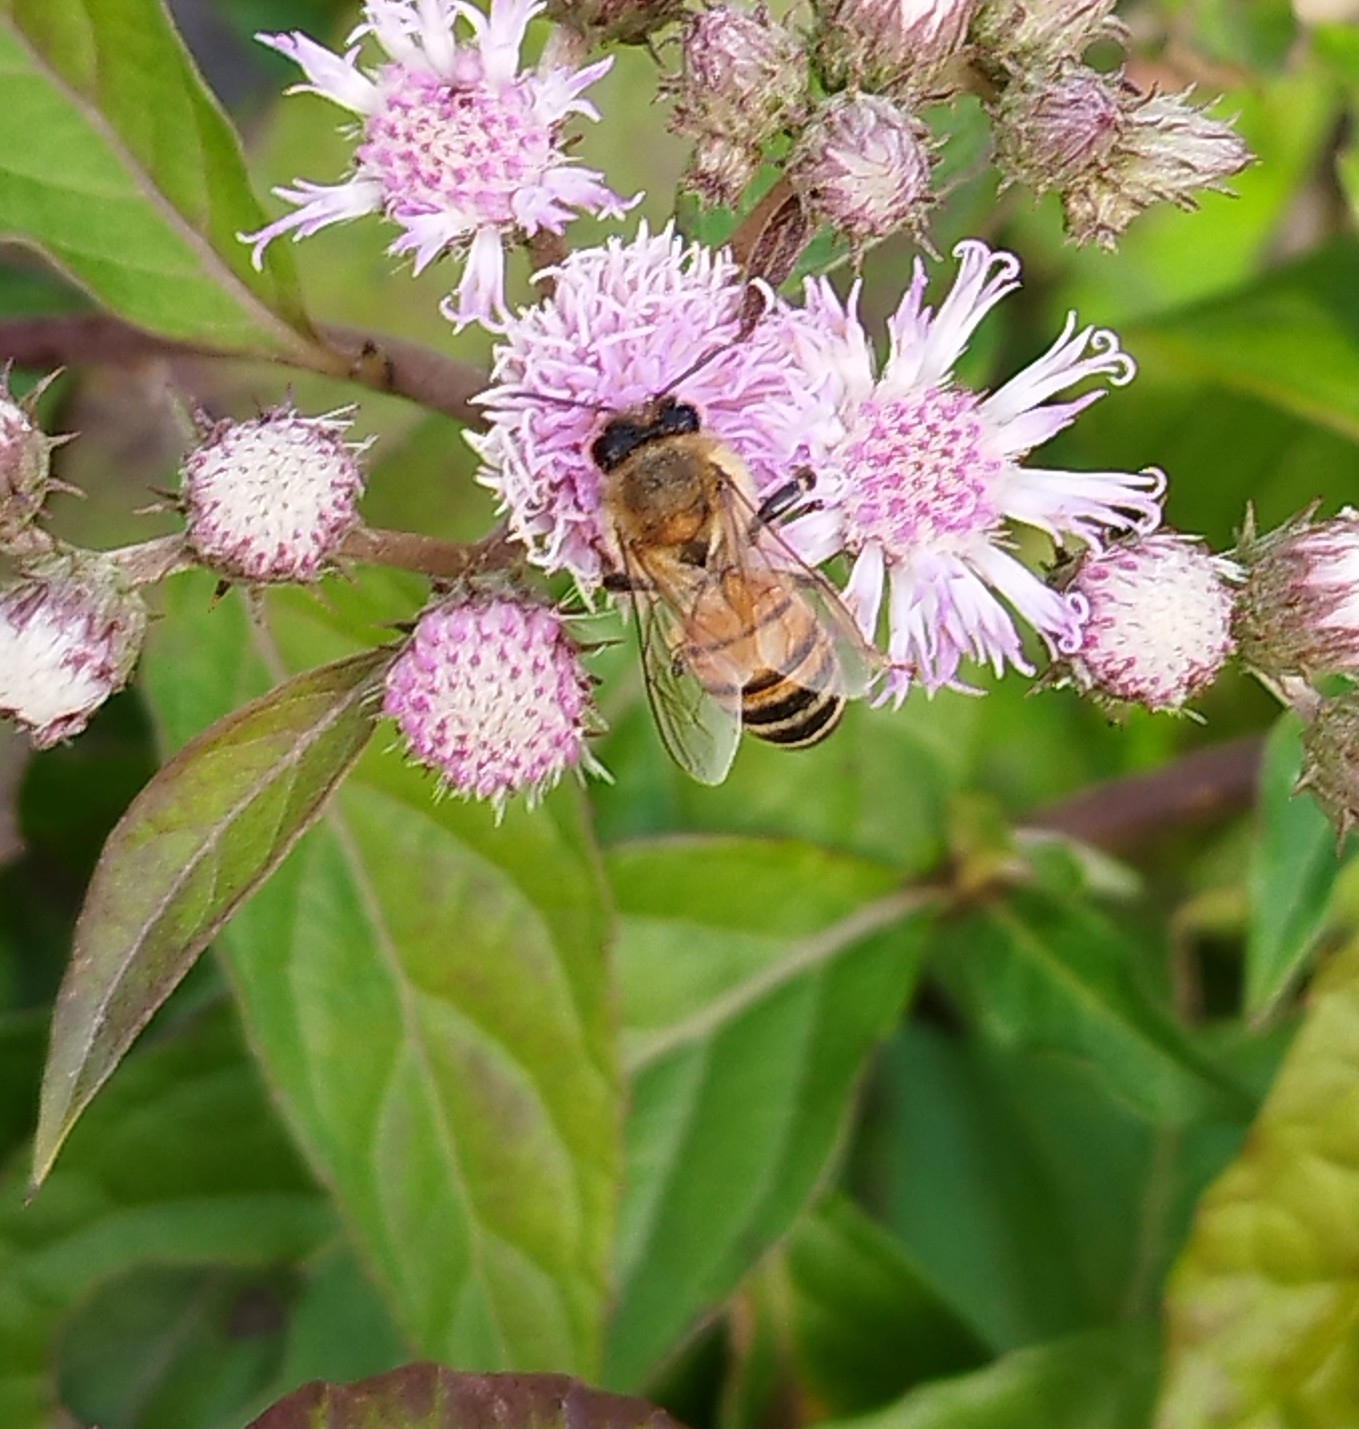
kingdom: Animalia
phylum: Arthropoda
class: Insecta
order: Hymenoptera
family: Apidae
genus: Apis
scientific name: Apis mellifera
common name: Honey bee
